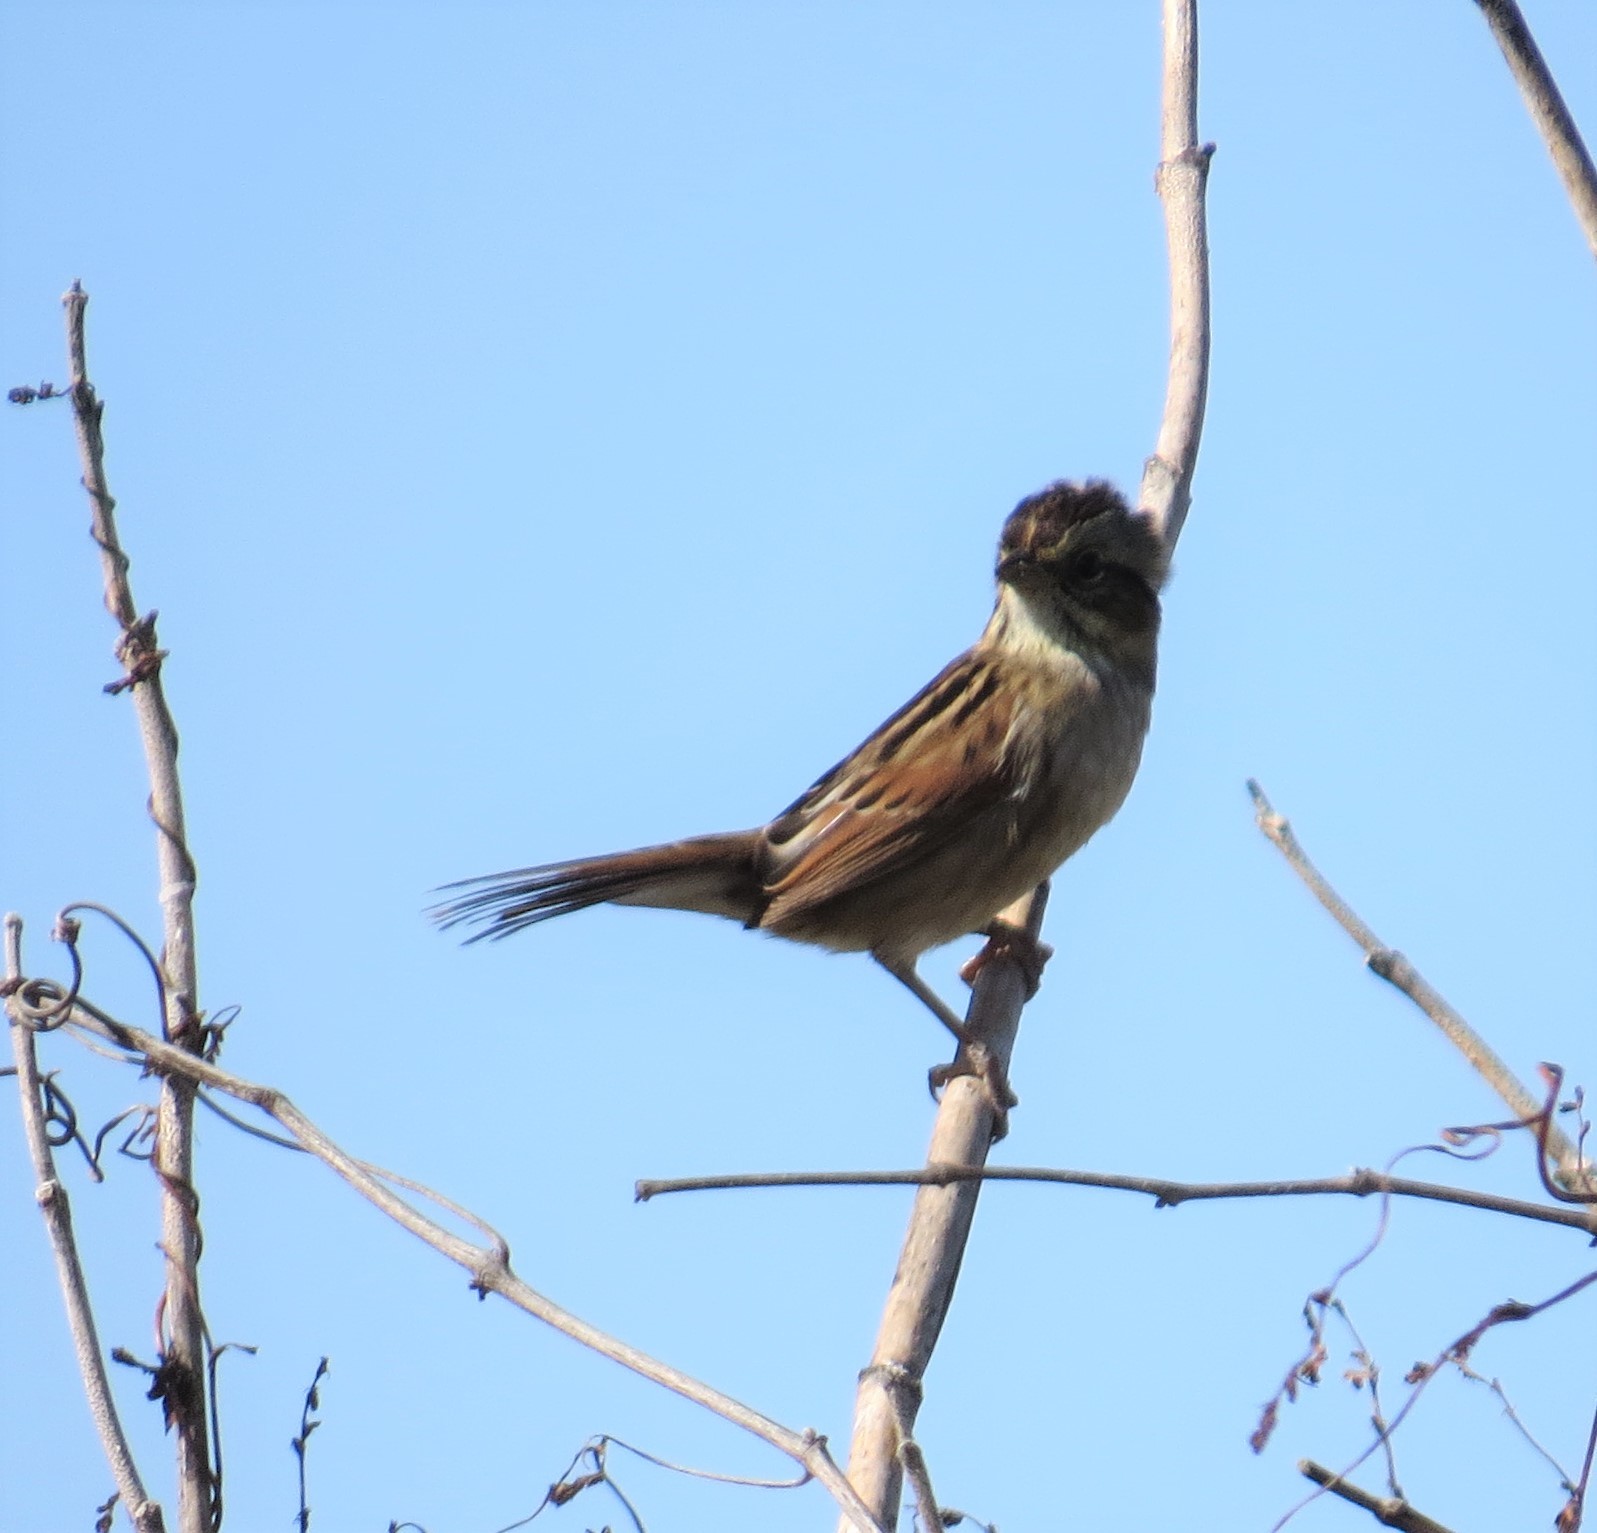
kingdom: Animalia
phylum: Chordata
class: Aves
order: Passeriformes
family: Passerellidae
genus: Melospiza
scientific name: Melospiza georgiana
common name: Swamp sparrow
